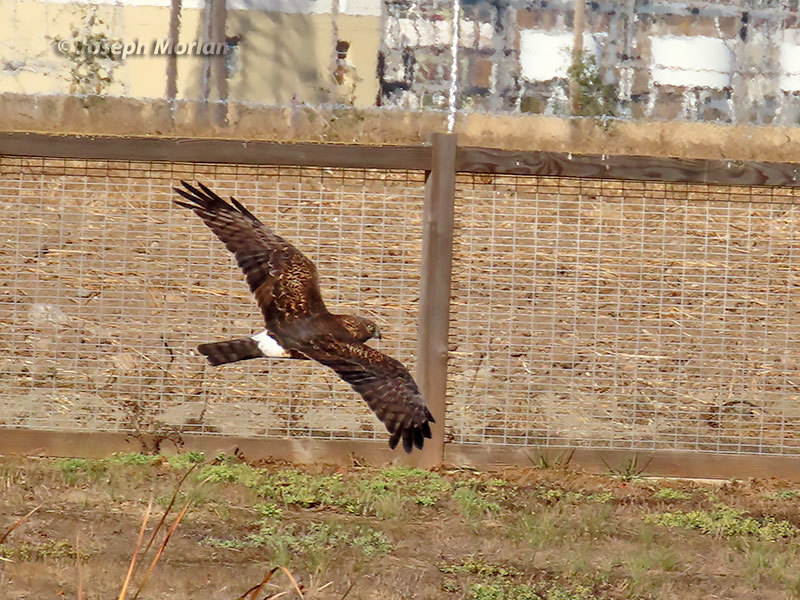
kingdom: Animalia
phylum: Chordata
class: Aves
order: Accipitriformes
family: Accipitridae
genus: Circus
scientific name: Circus cyaneus
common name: Hen harrier
